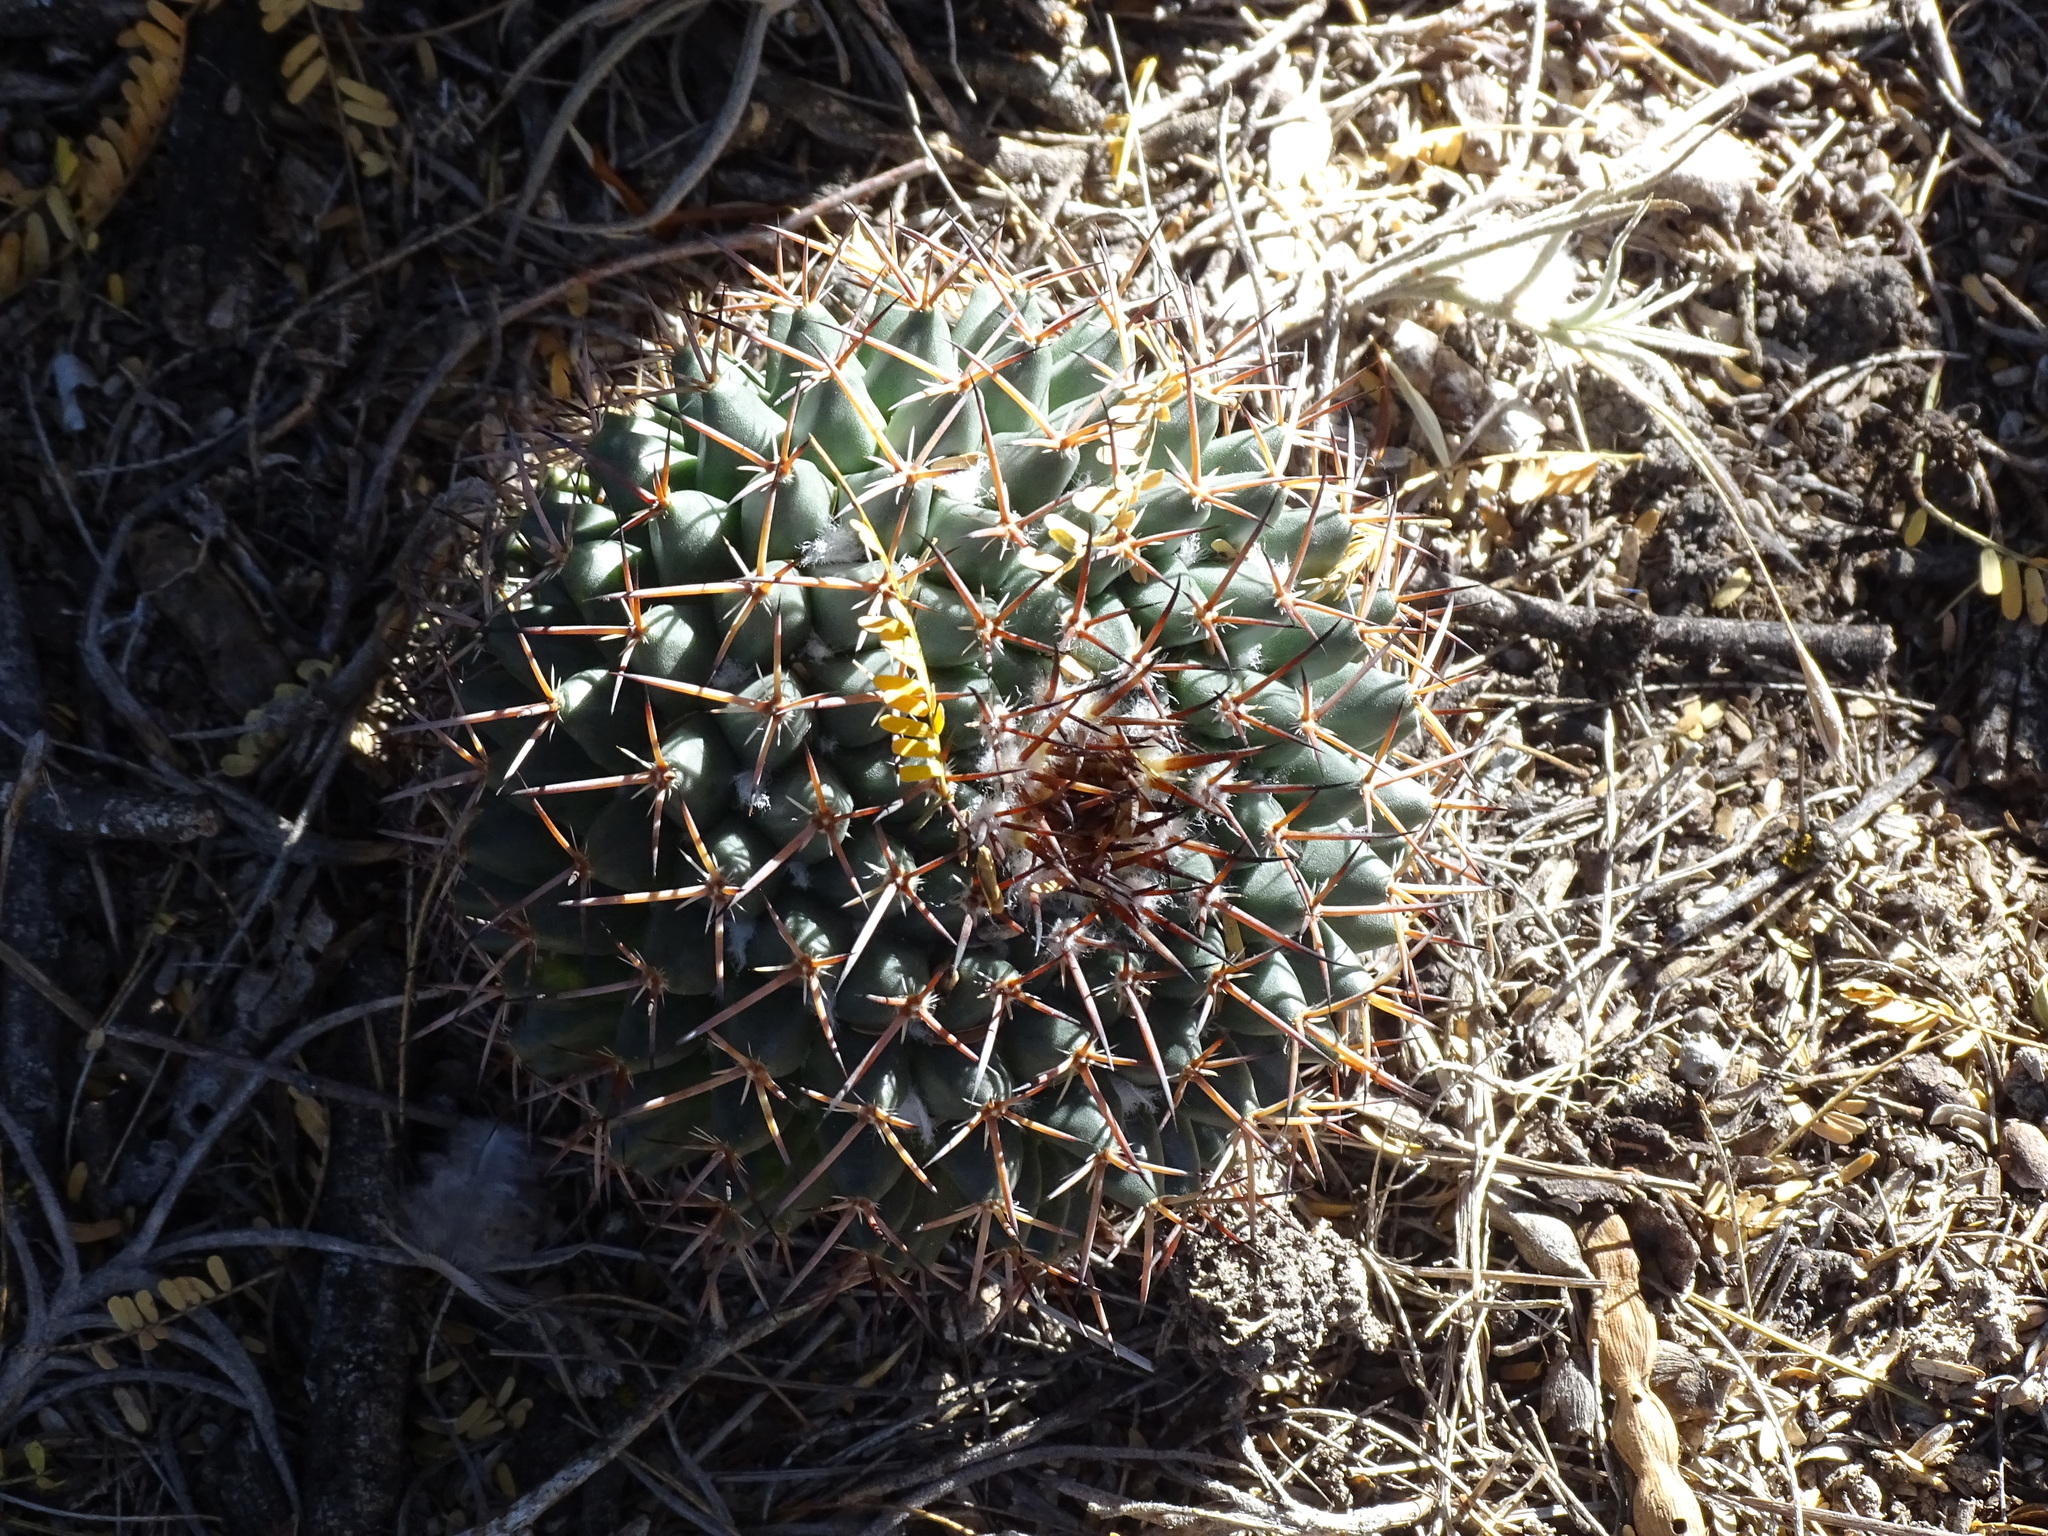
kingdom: Plantae
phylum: Tracheophyta
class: Magnoliopsida
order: Caryophyllales
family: Cactaceae
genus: Mammillaria
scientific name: Mammillaria magnimamma
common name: Mexican pincushion
